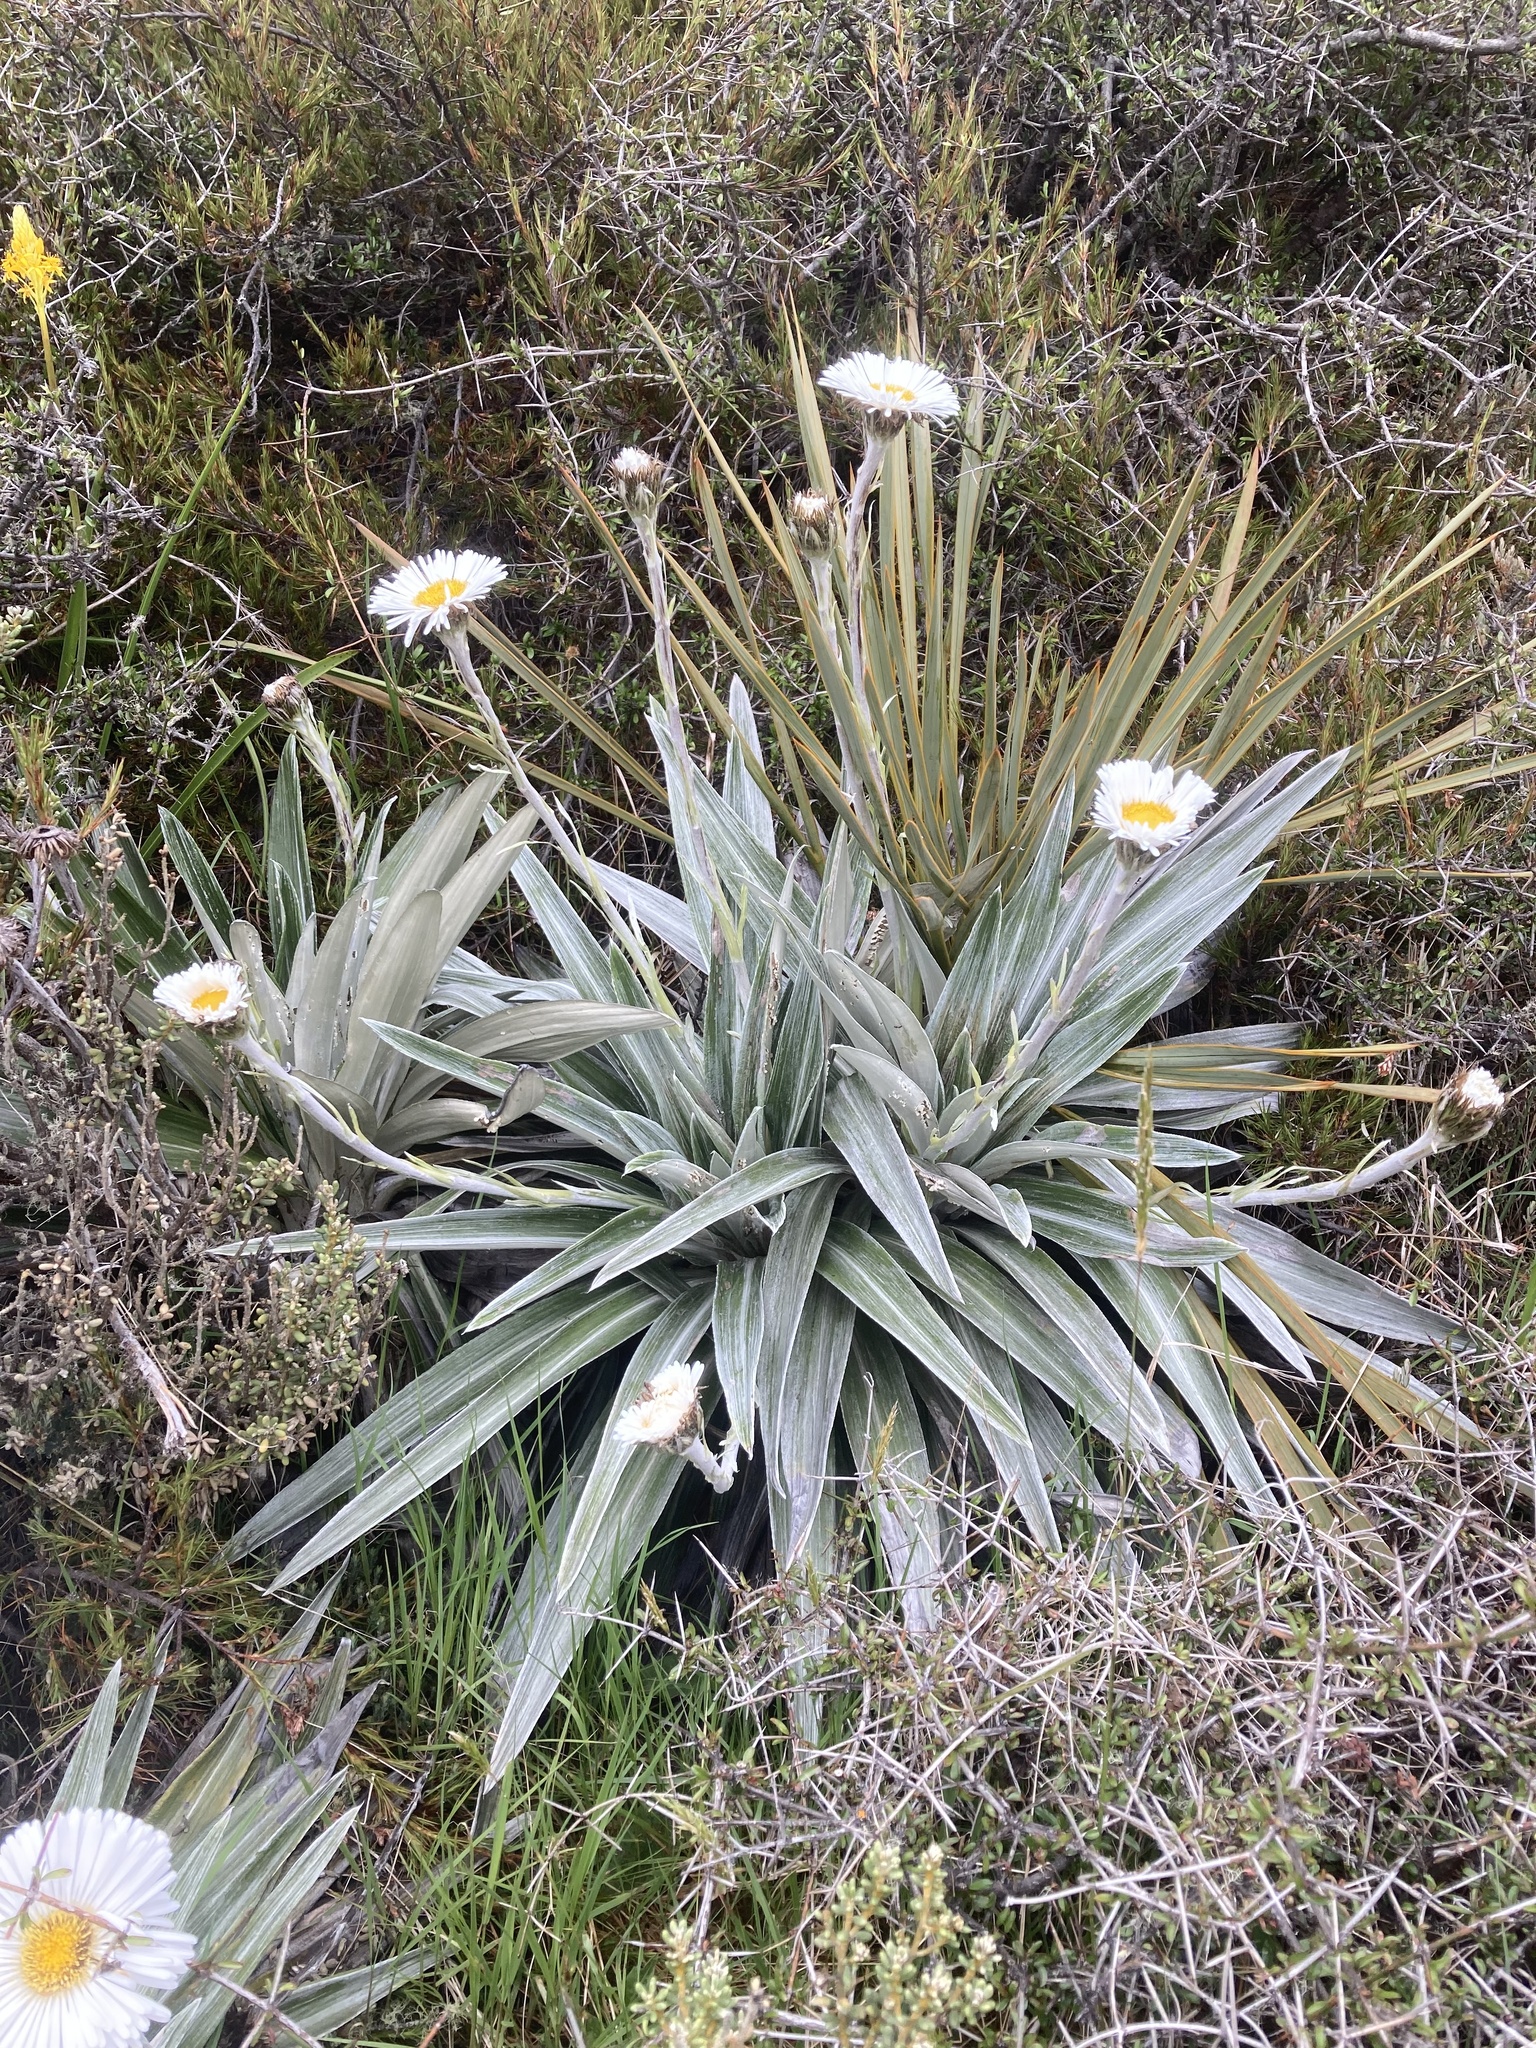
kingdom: Plantae
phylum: Tracheophyta
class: Magnoliopsida
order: Asterales
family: Asteraceae
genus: Celmisia
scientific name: Celmisia semicordata
